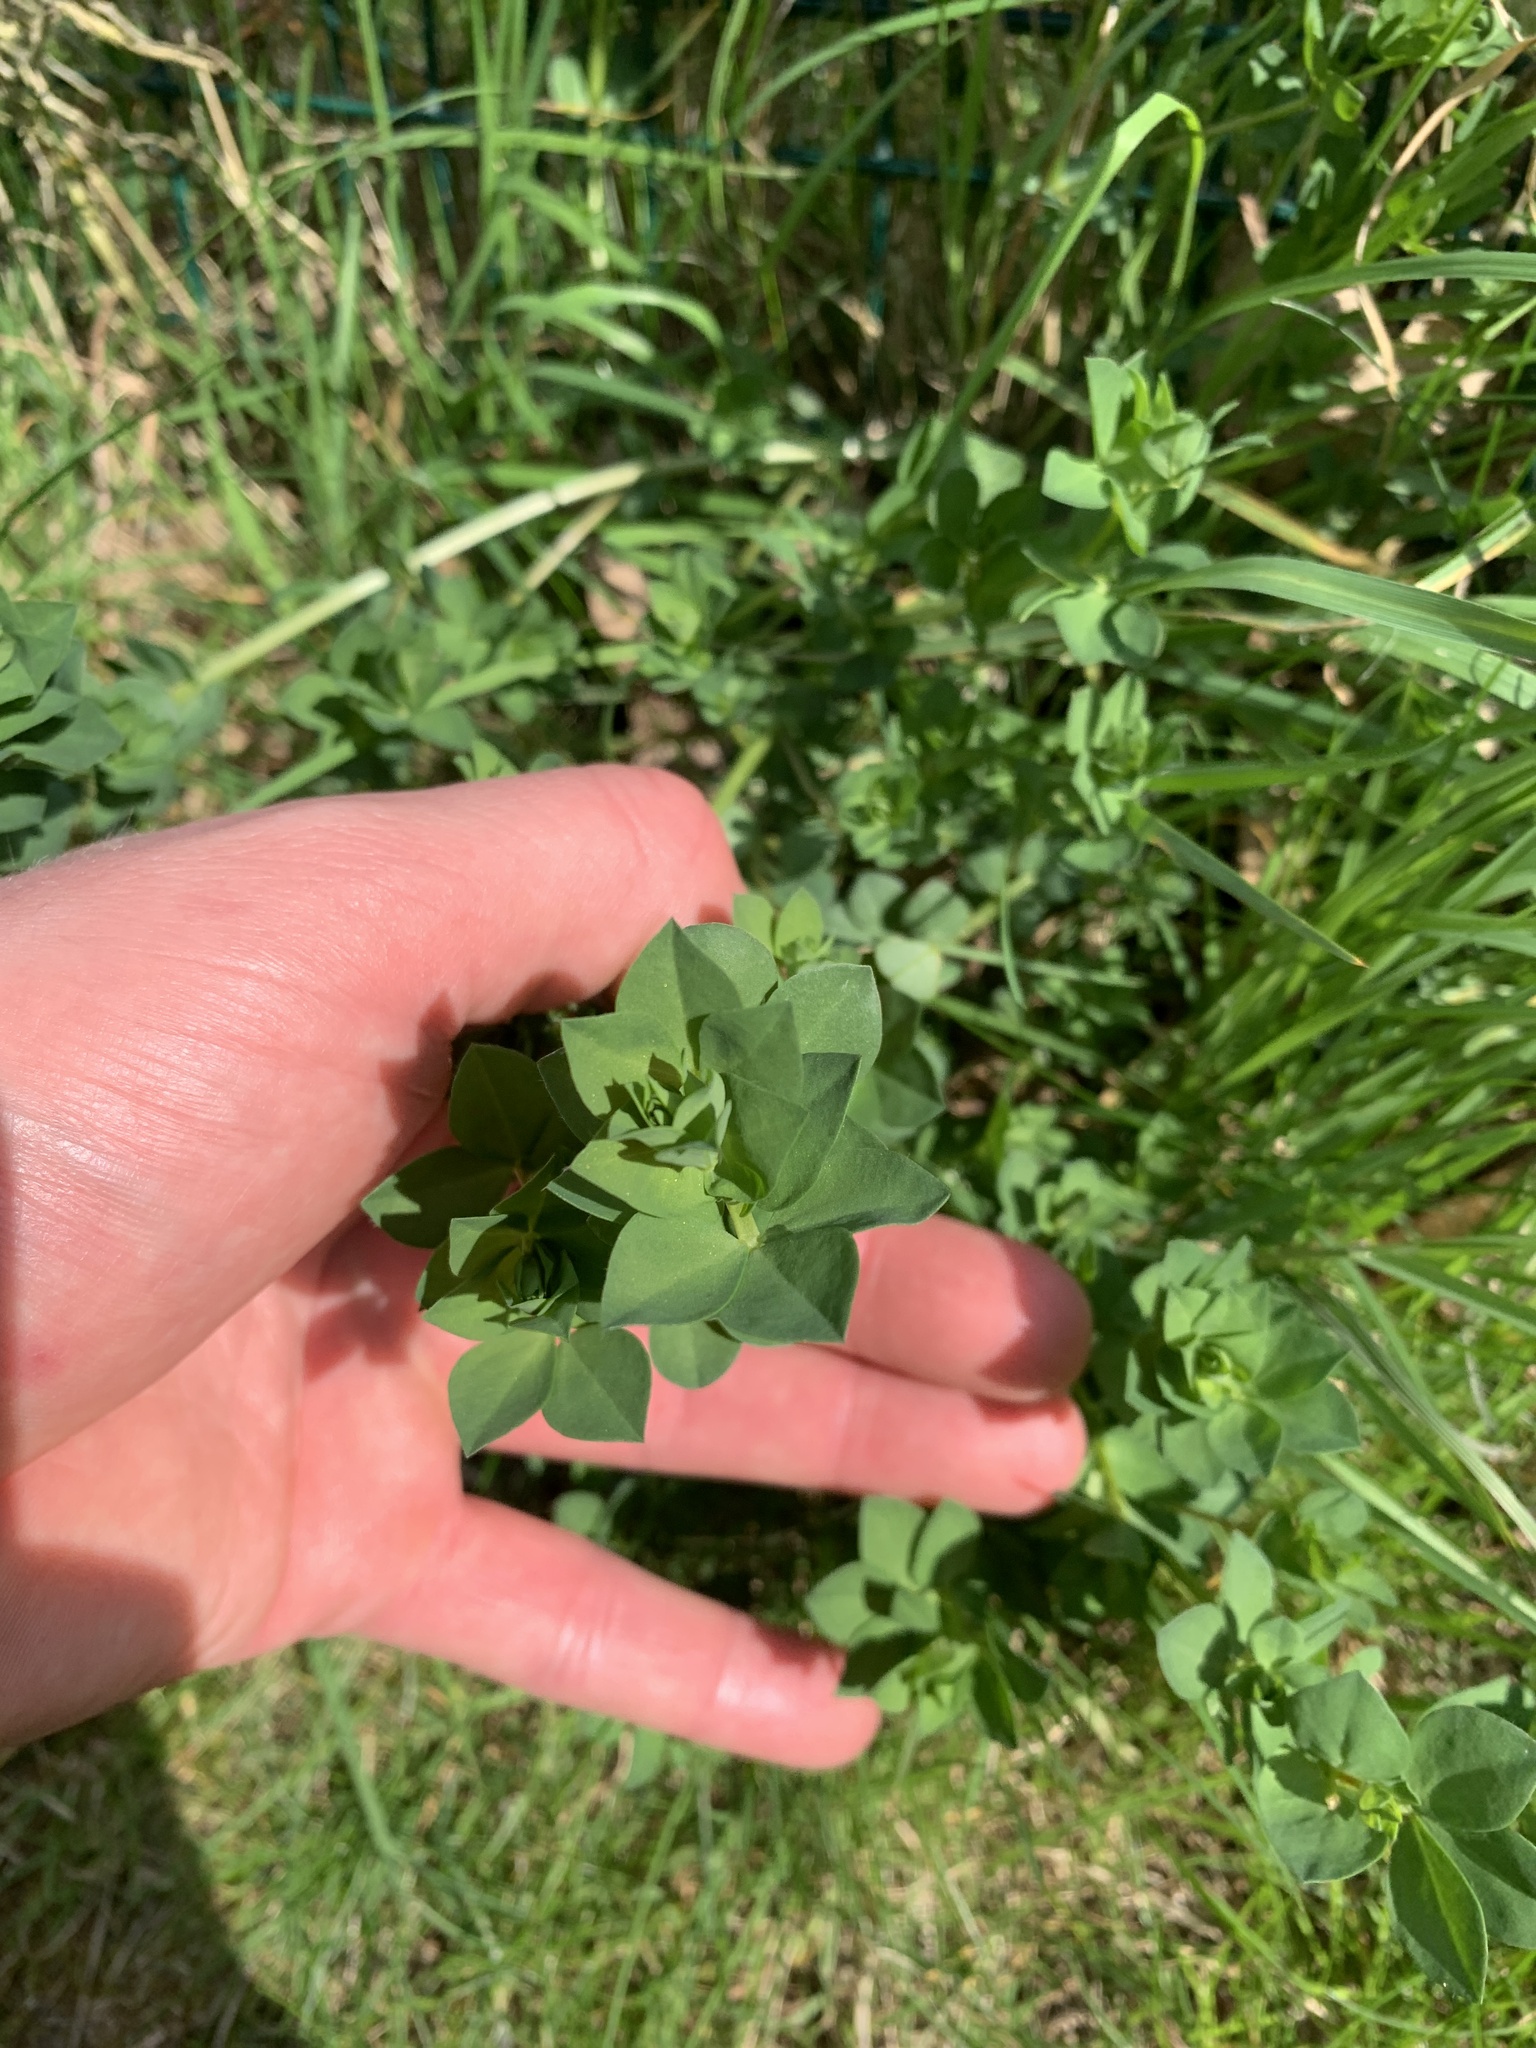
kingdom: Plantae
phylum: Tracheophyta
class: Magnoliopsida
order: Fabales
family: Fabaceae
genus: Lotus
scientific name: Lotus pedunculatus
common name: Greater birdsfoot-trefoil
